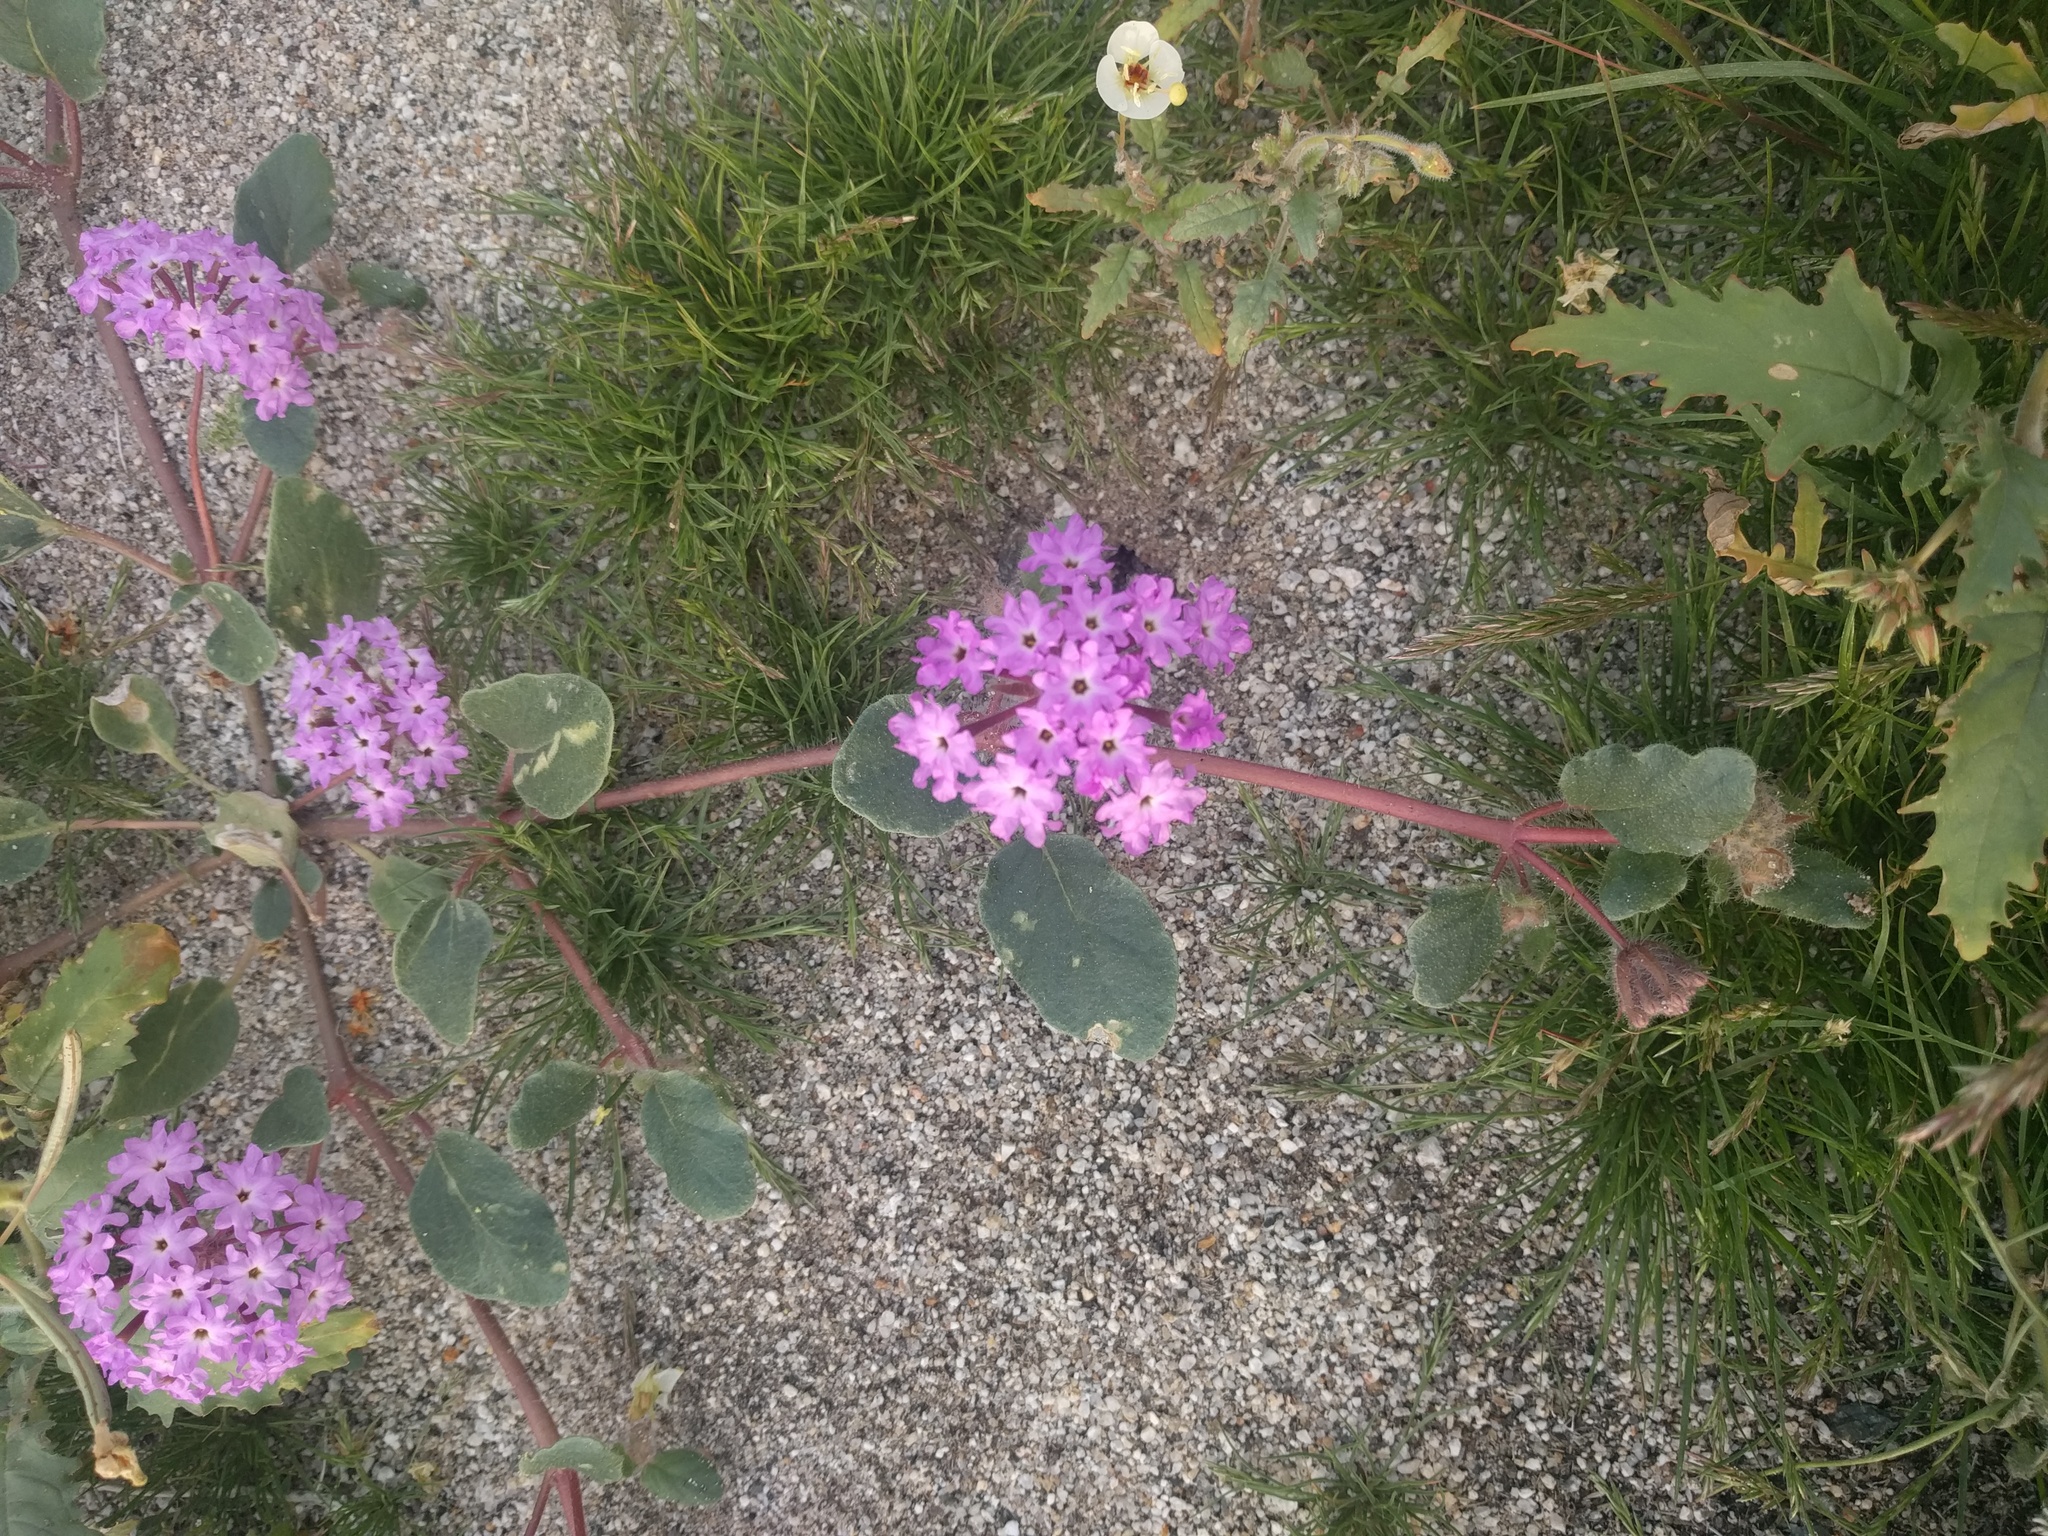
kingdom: Plantae
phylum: Tracheophyta
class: Magnoliopsida
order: Caryophyllales
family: Nyctaginaceae
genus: Abronia
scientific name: Abronia villosa
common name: Desert sand-verbena
